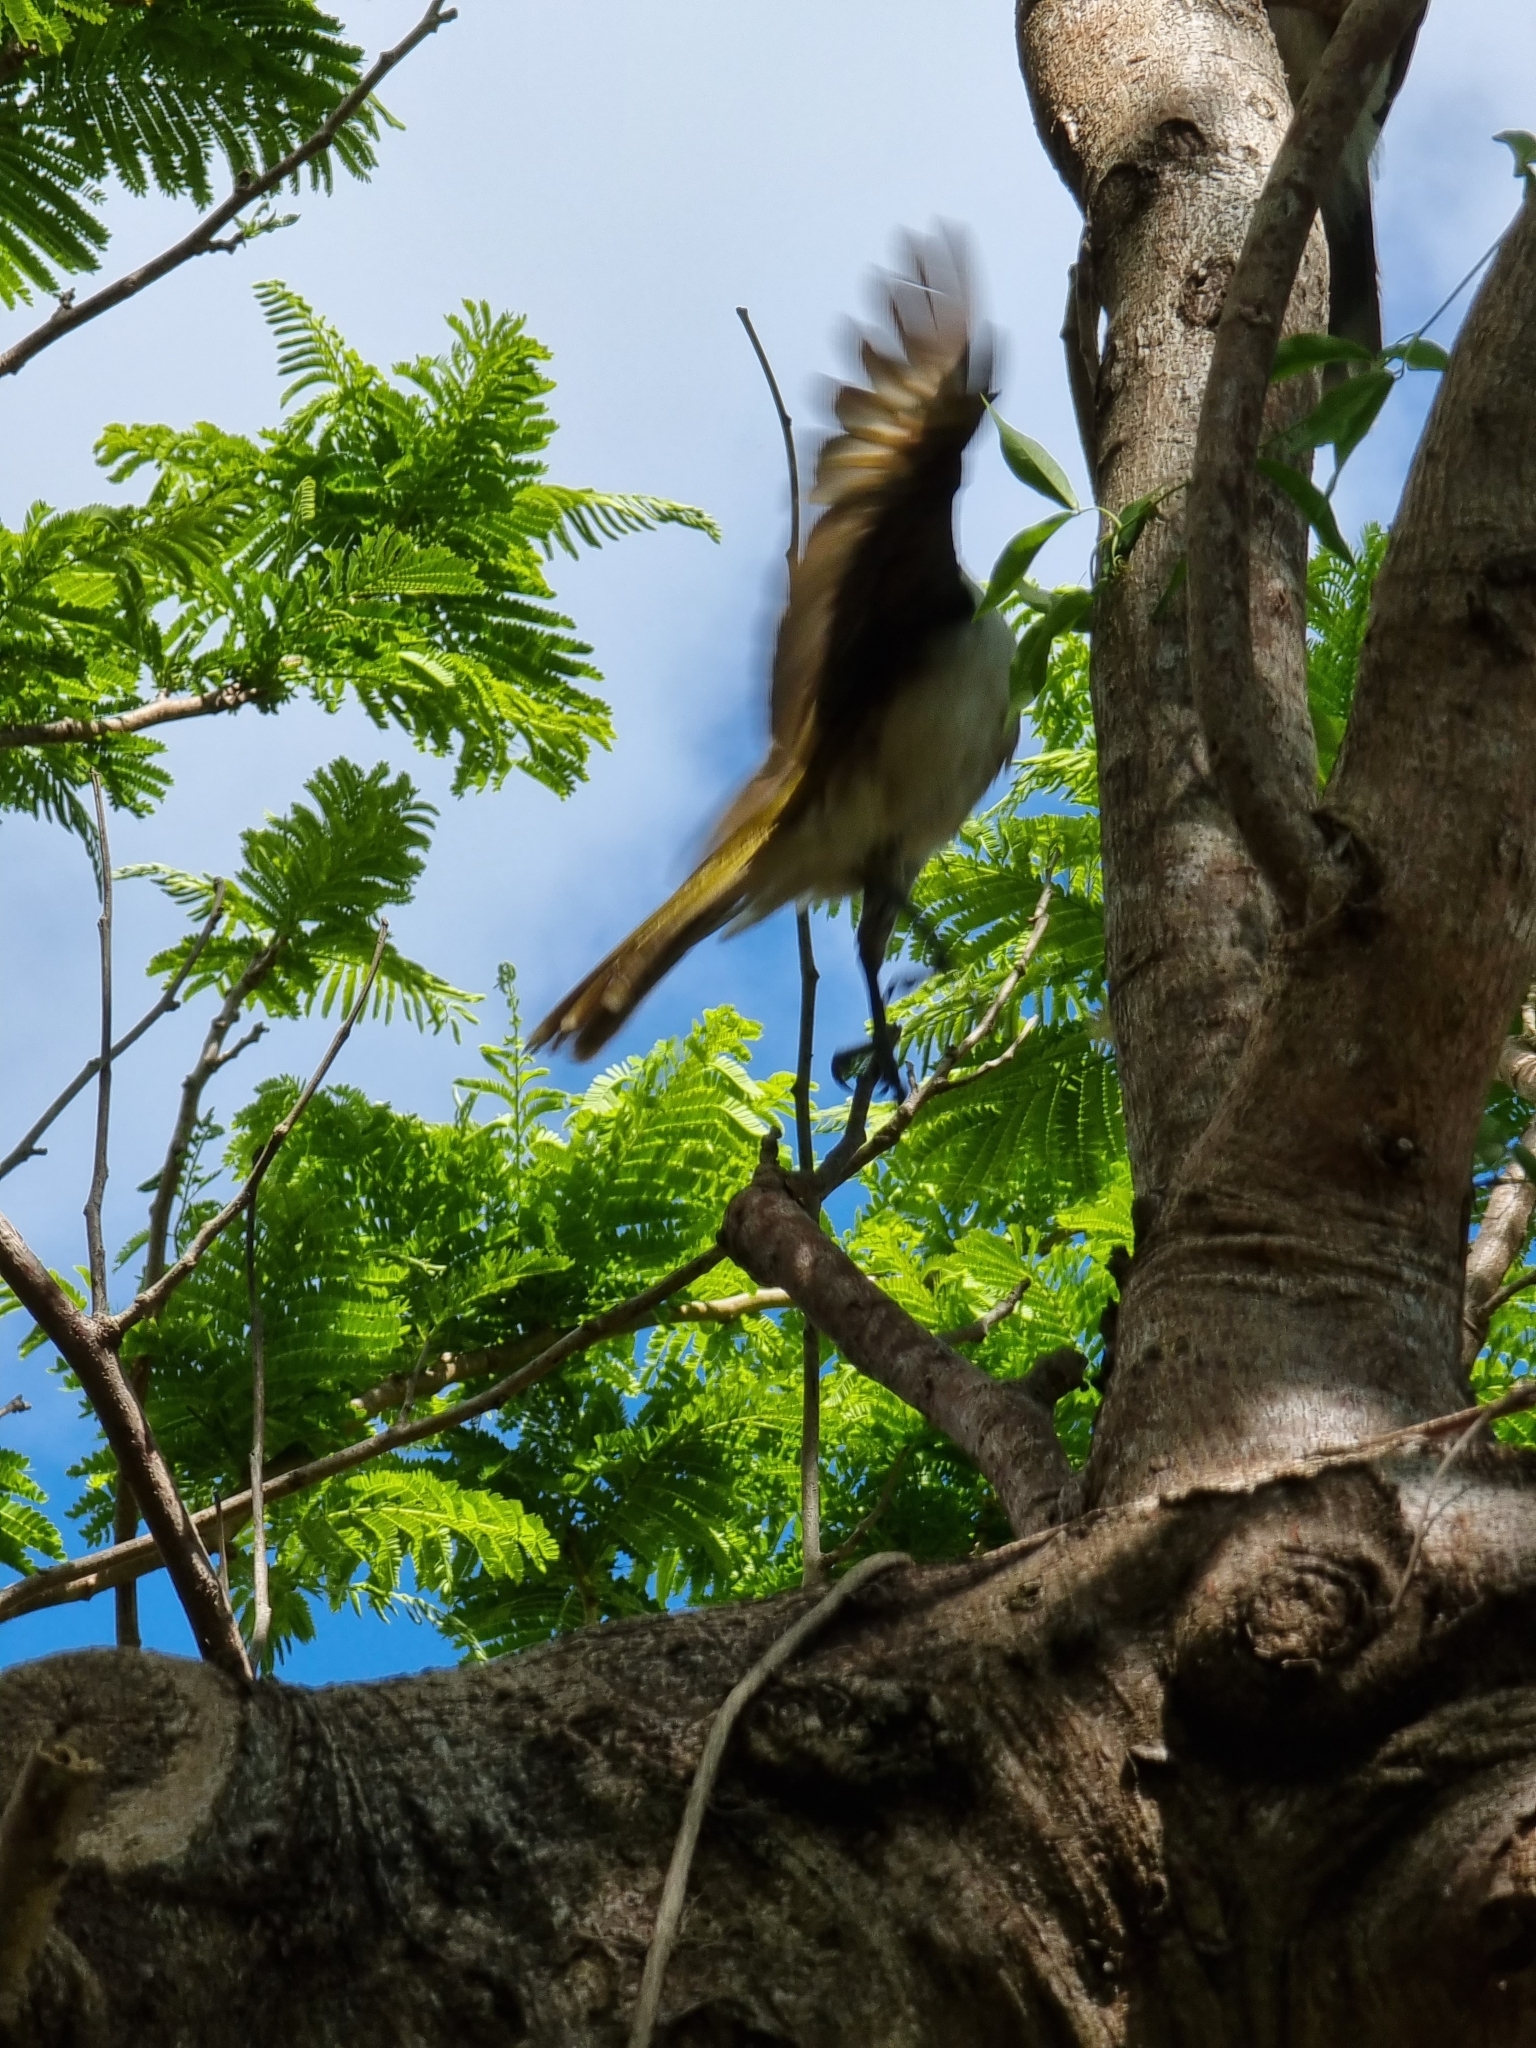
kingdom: Animalia
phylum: Chordata
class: Aves
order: Passeriformes
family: Meliphagidae
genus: Entomyzon
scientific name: Entomyzon cyanotis
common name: Blue-faced honeyeater
